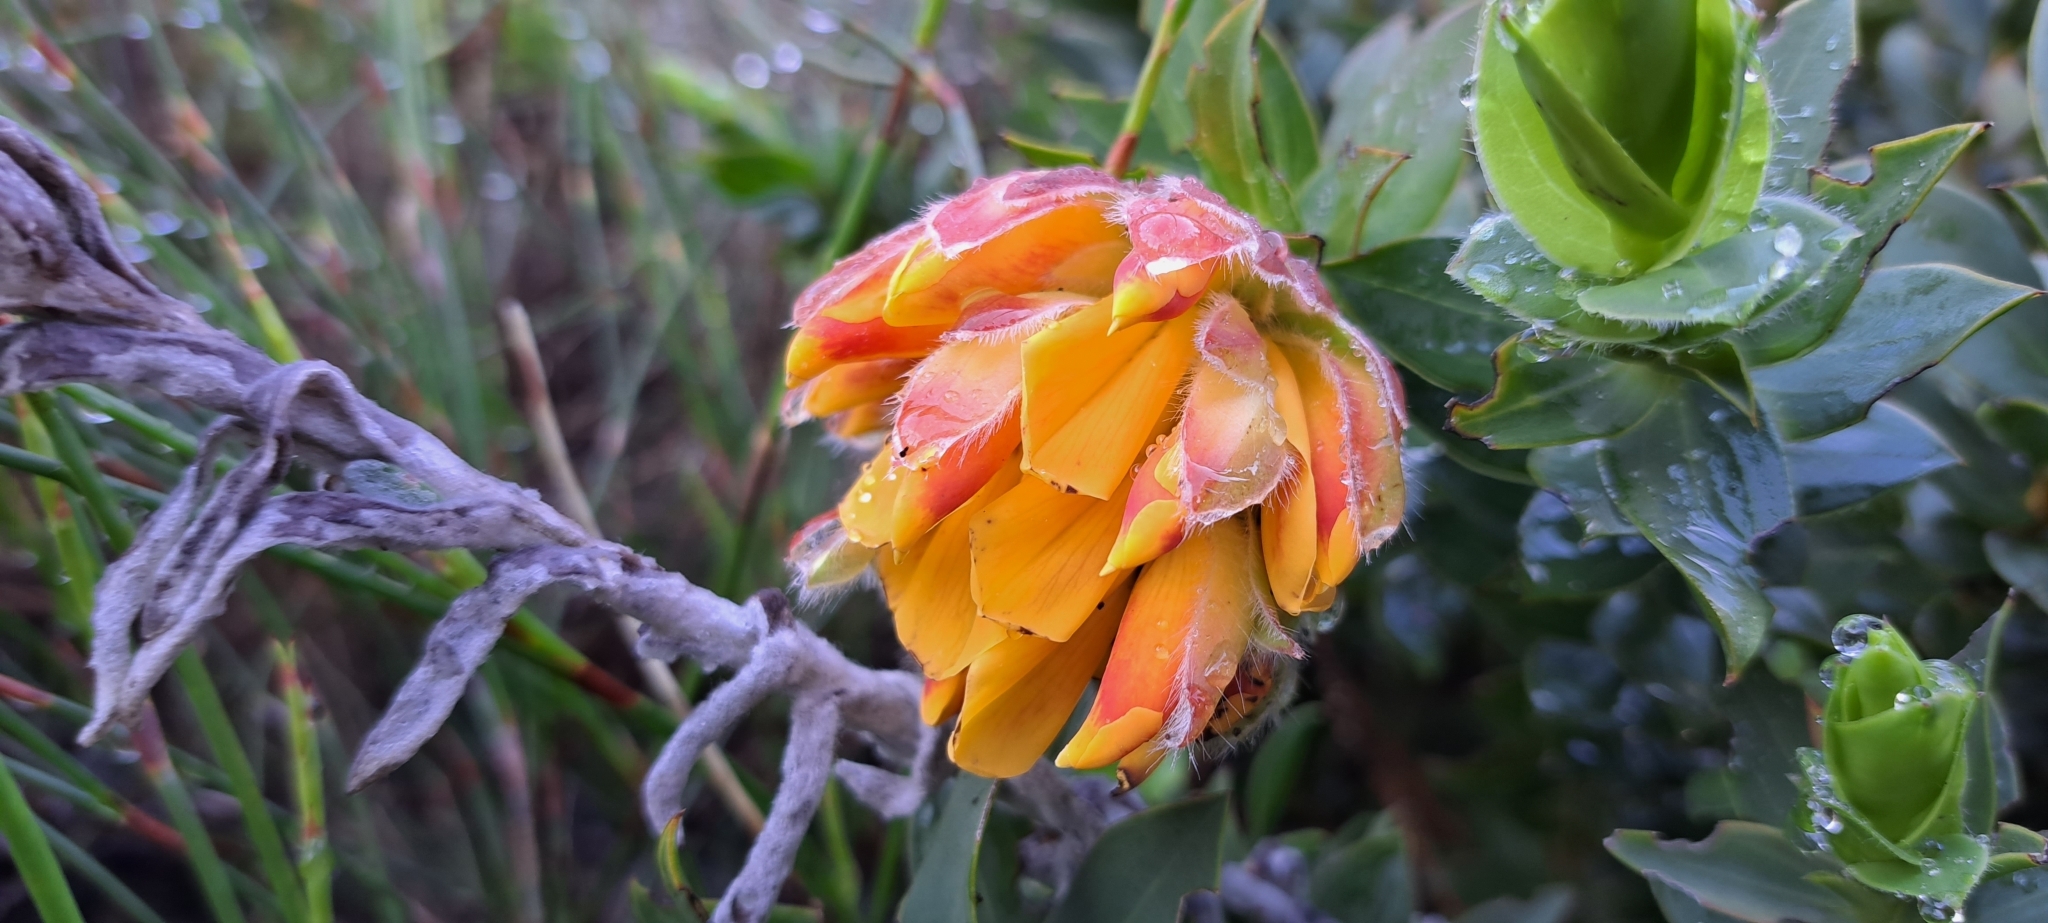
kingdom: Plantae
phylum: Tracheophyta
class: Magnoliopsida
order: Fabales
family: Fabaceae
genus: Liparia
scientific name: Liparia splendens
